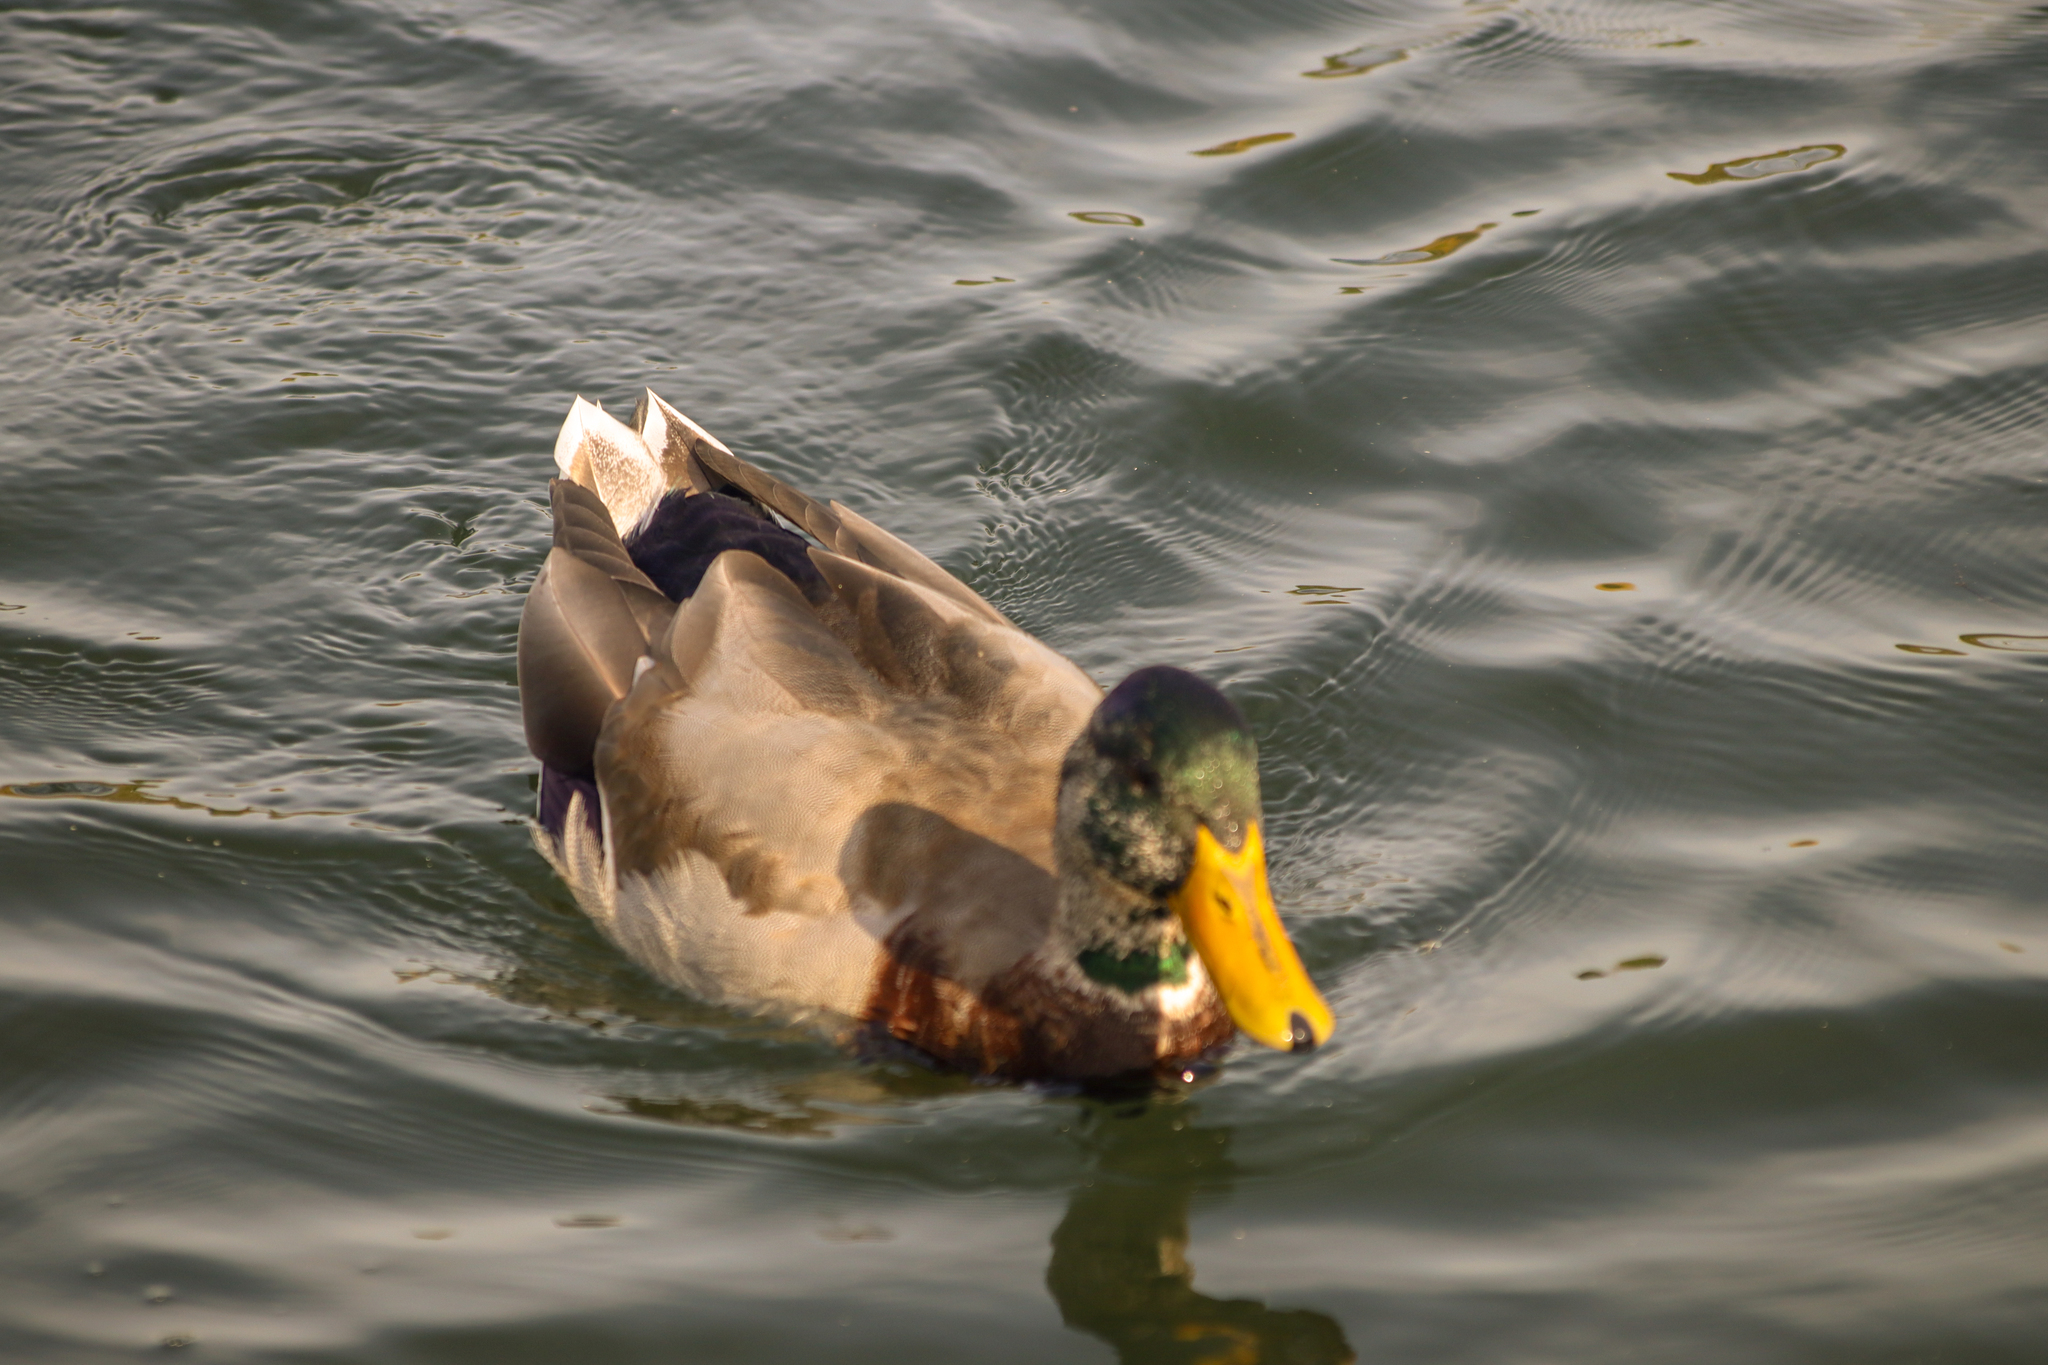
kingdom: Animalia
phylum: Chordata
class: Aves
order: Anseriformes
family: Anatidae
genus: Anas
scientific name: Anas platyrhynchos
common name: Mallard
